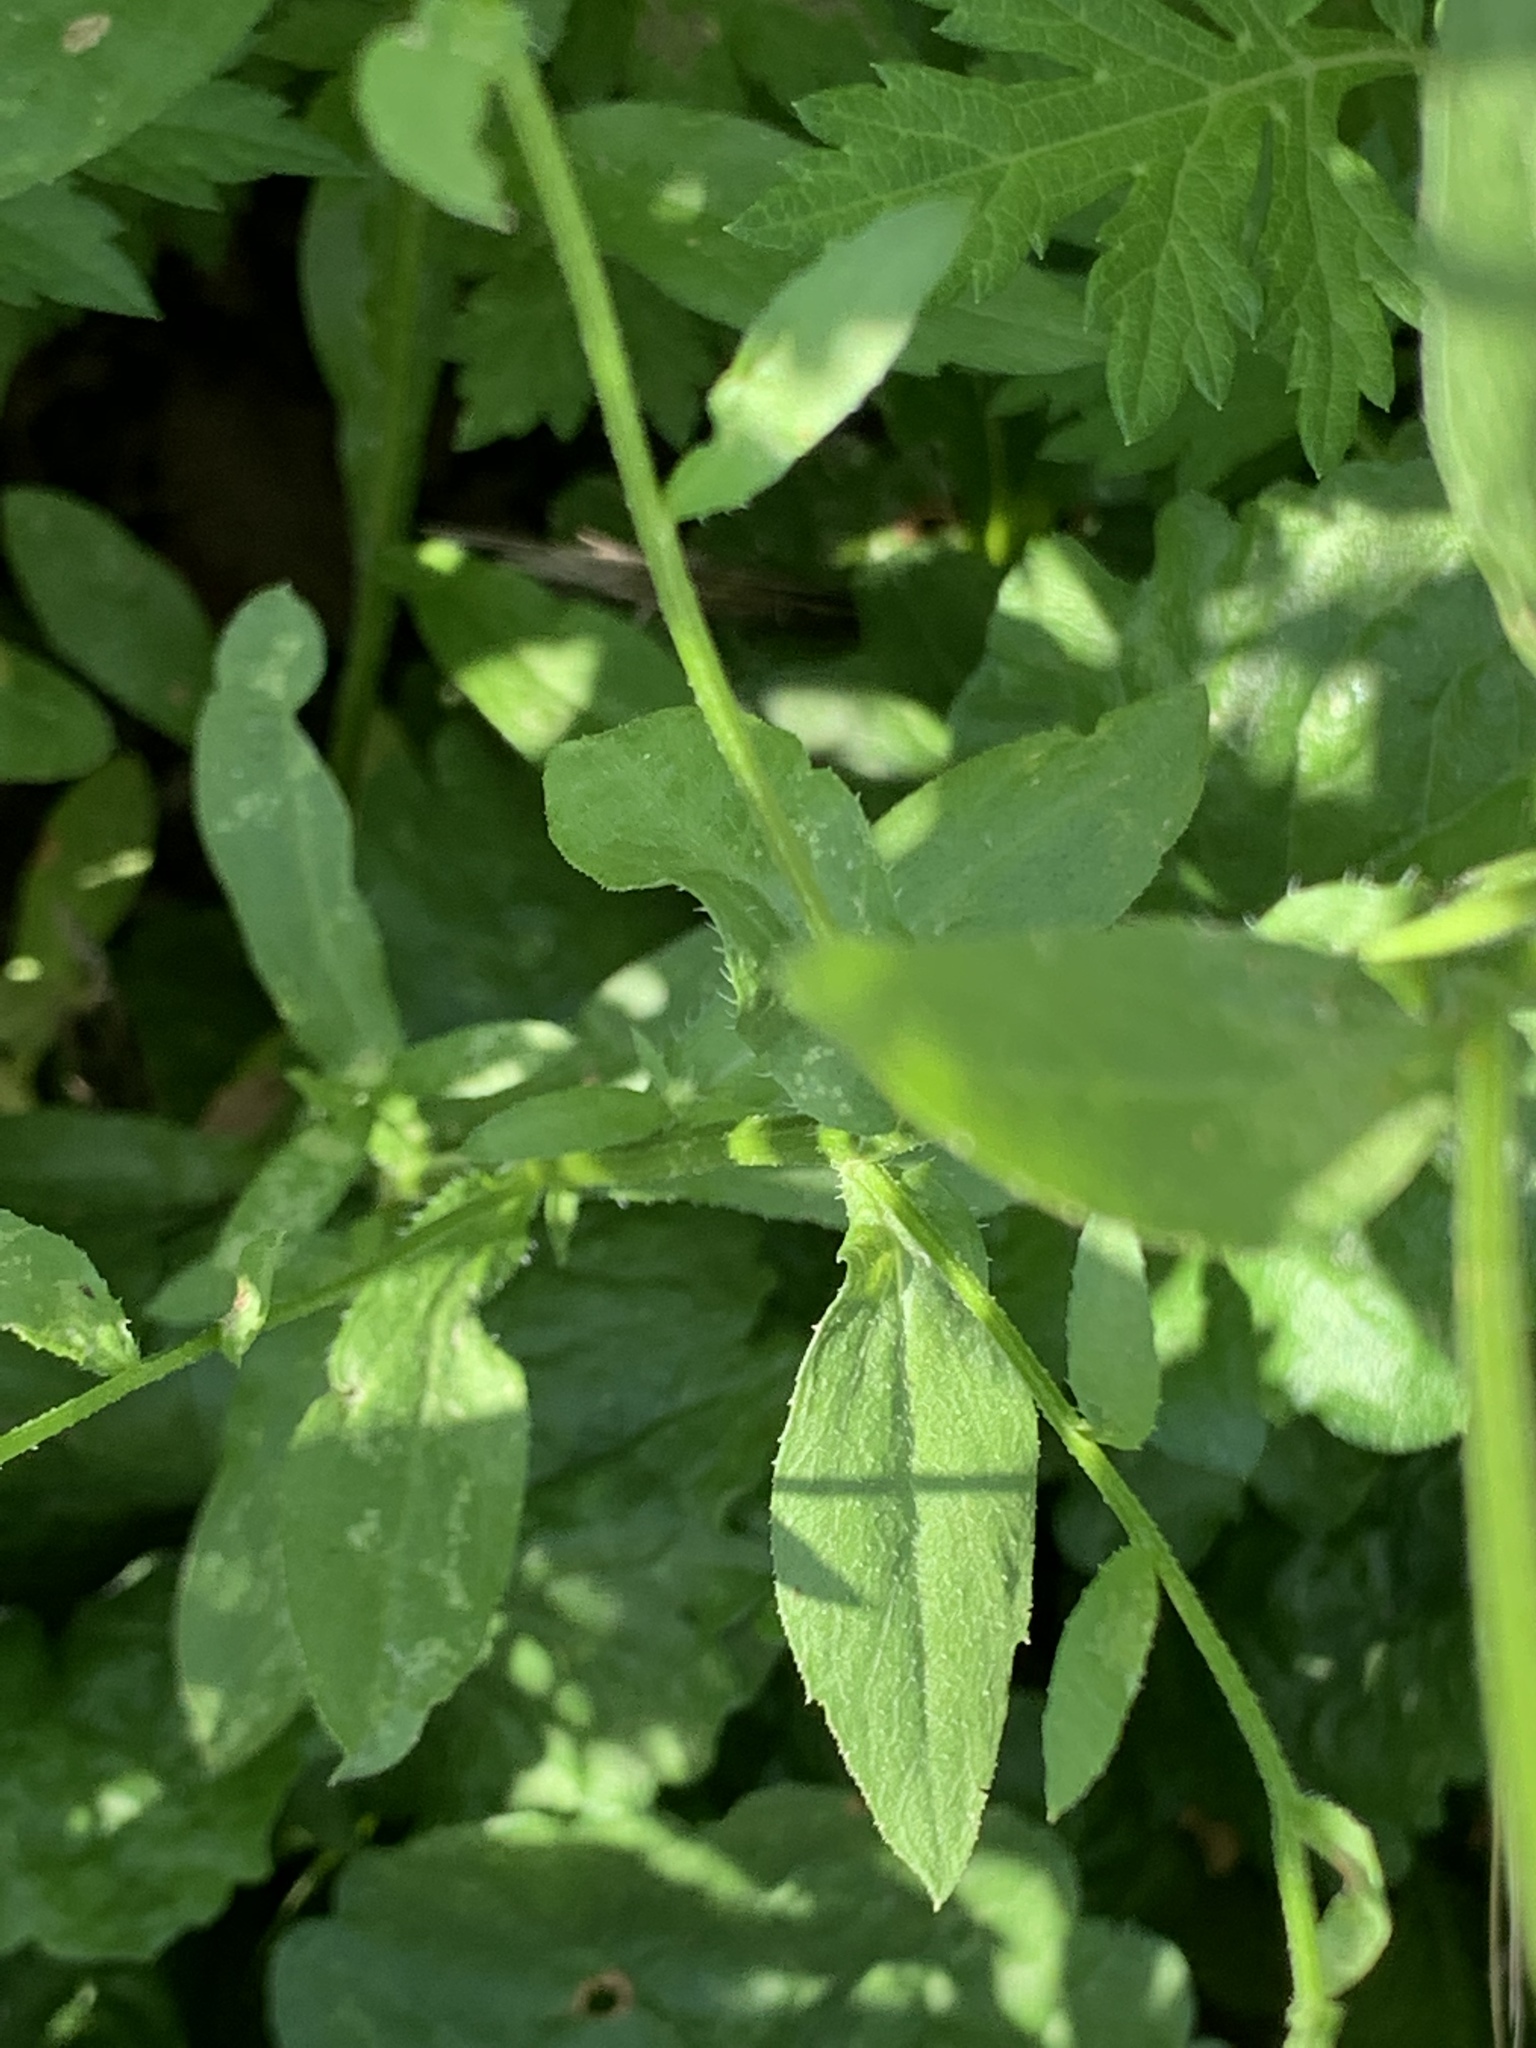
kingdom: Plantae
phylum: Tracheophyta
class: Magnoliopsida
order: Asterales
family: Asteraceae
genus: Erigeron
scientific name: Erigeron annuus
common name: Tall fleabane
